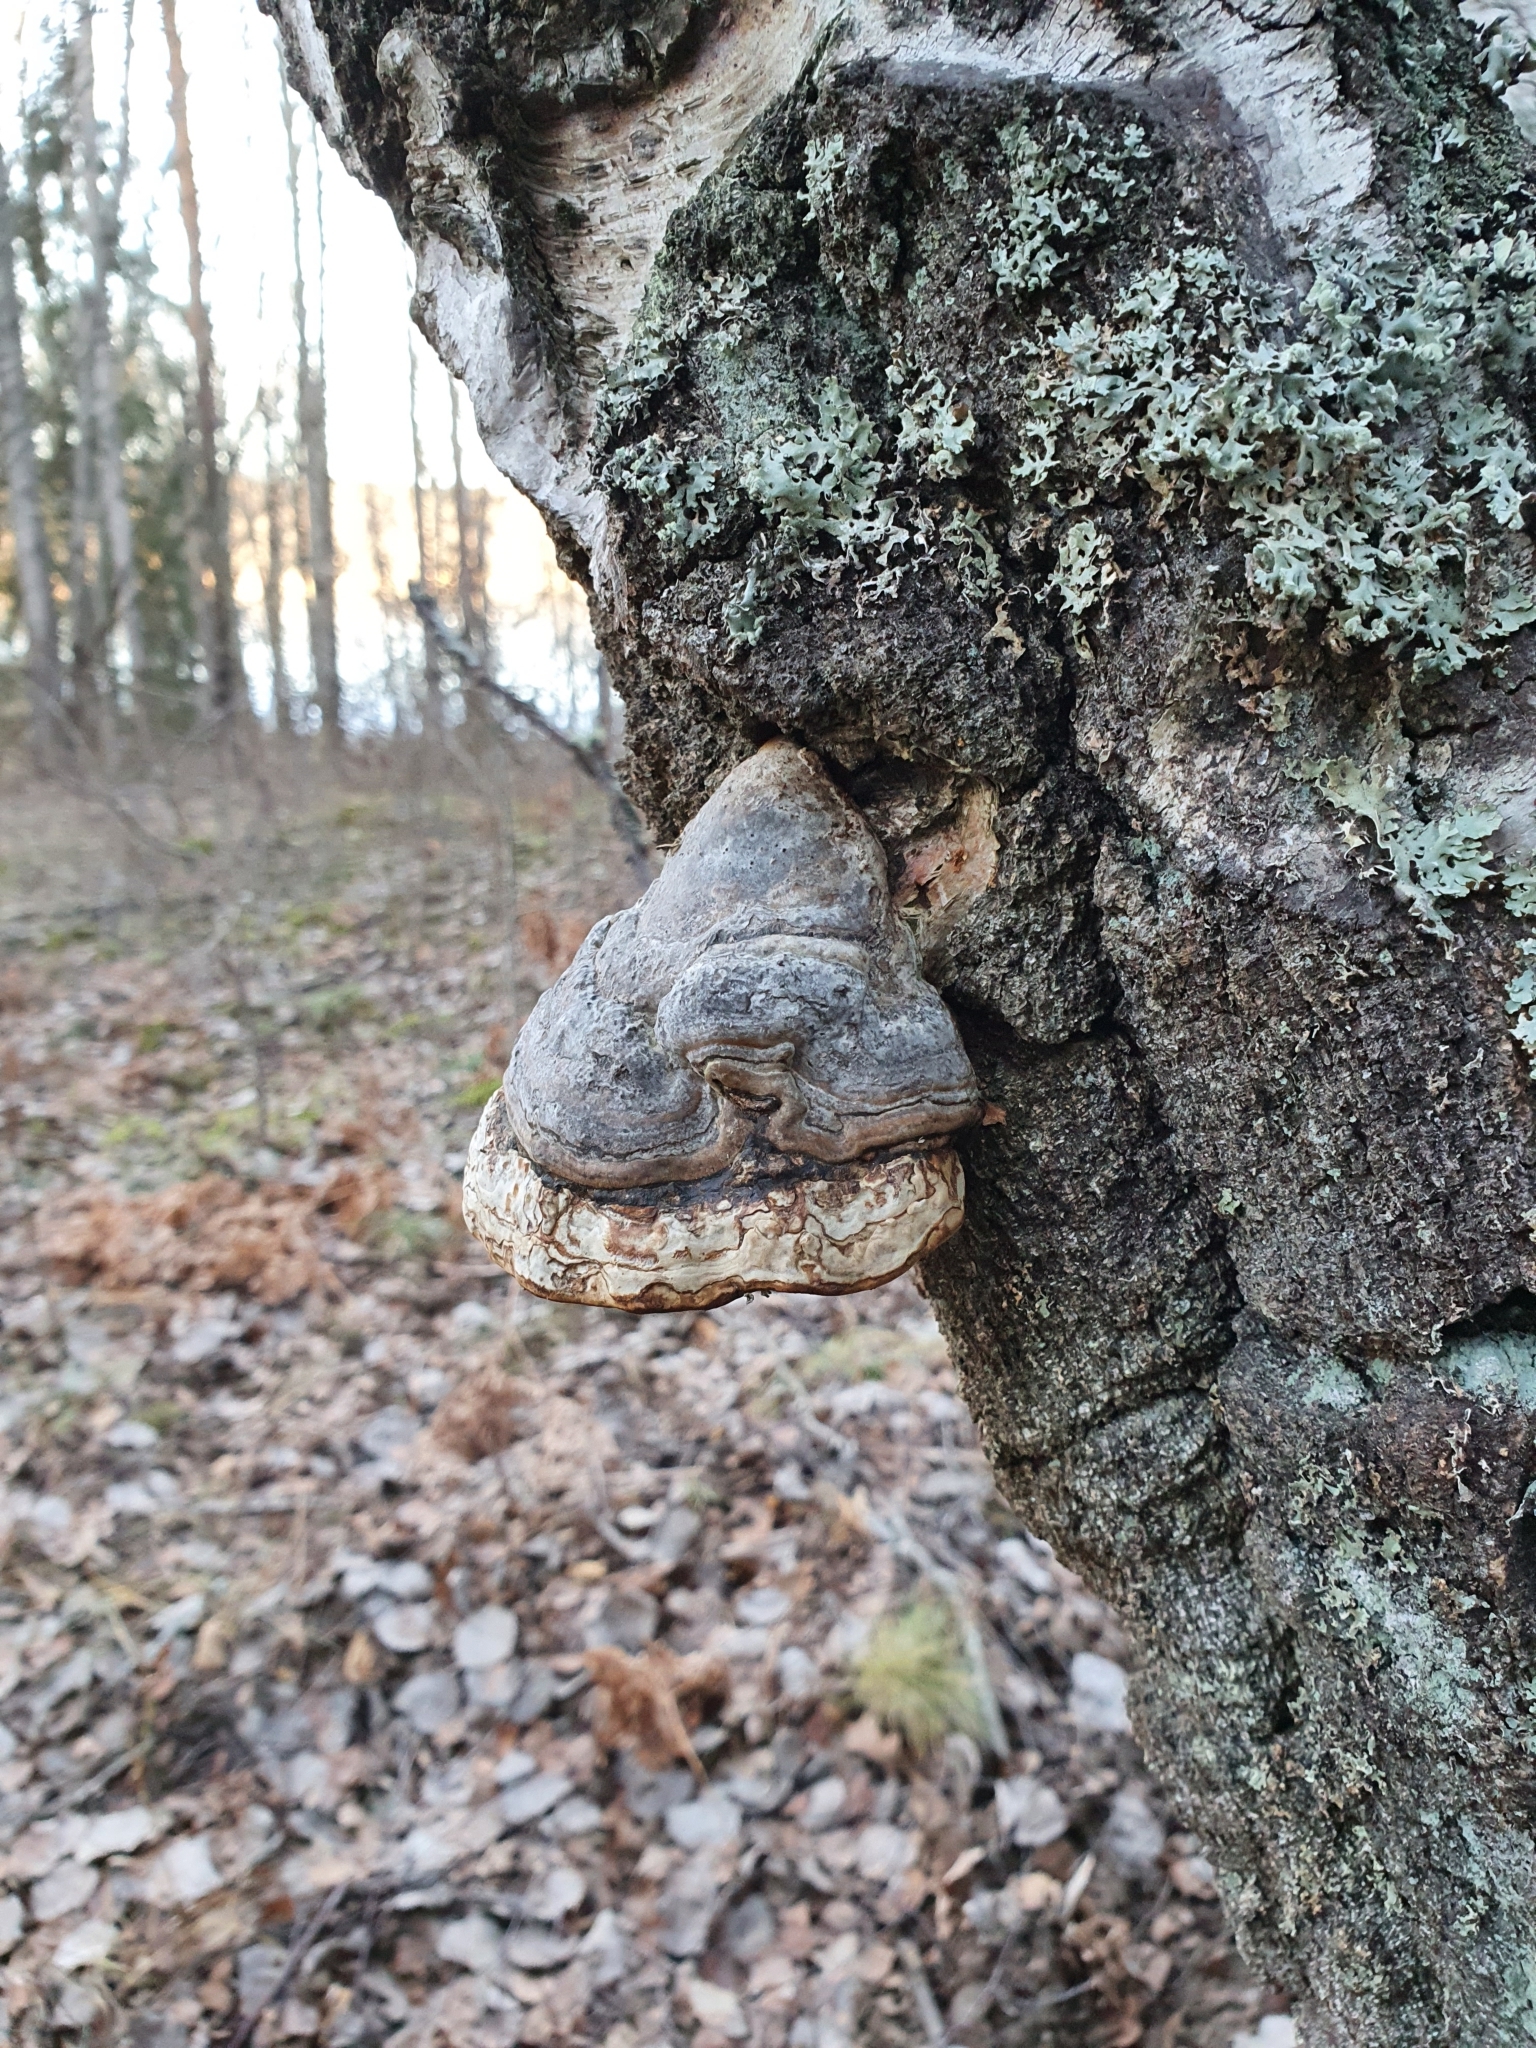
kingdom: Fungi
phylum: Basidiomycota
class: Agaricomycetes
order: Polyporales
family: Polyporaceae
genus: Fomes
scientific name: Fomes fomentarius
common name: Hoof fungus
